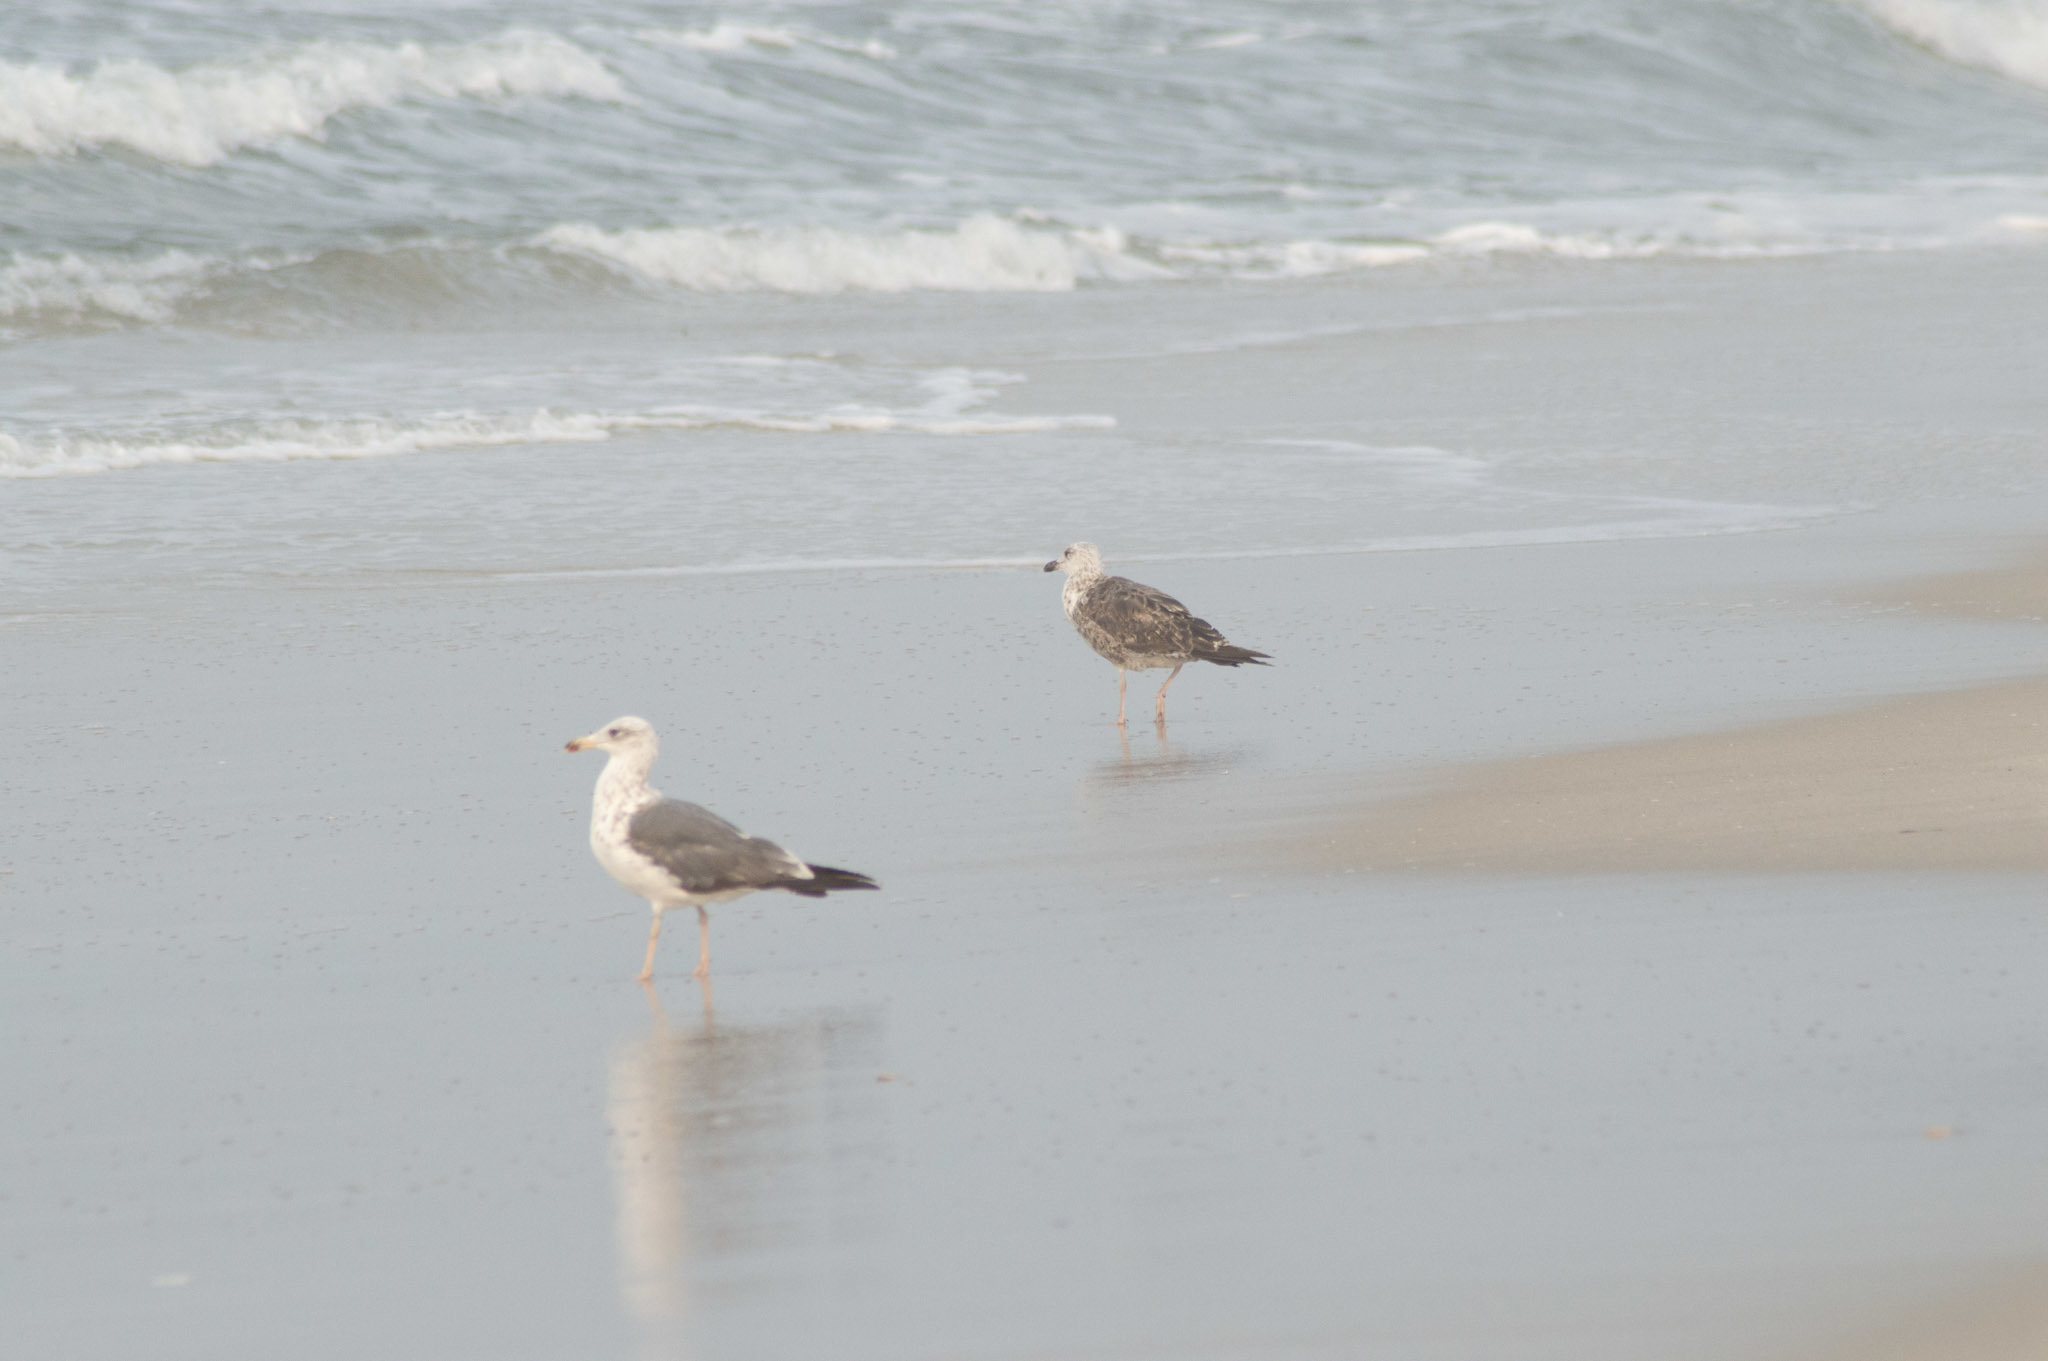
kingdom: Animalia
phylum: Chordata
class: Aves
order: Charadriiformes
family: Laridae
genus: Larus
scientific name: Larus fuscus
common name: Lesser black-backed gull
